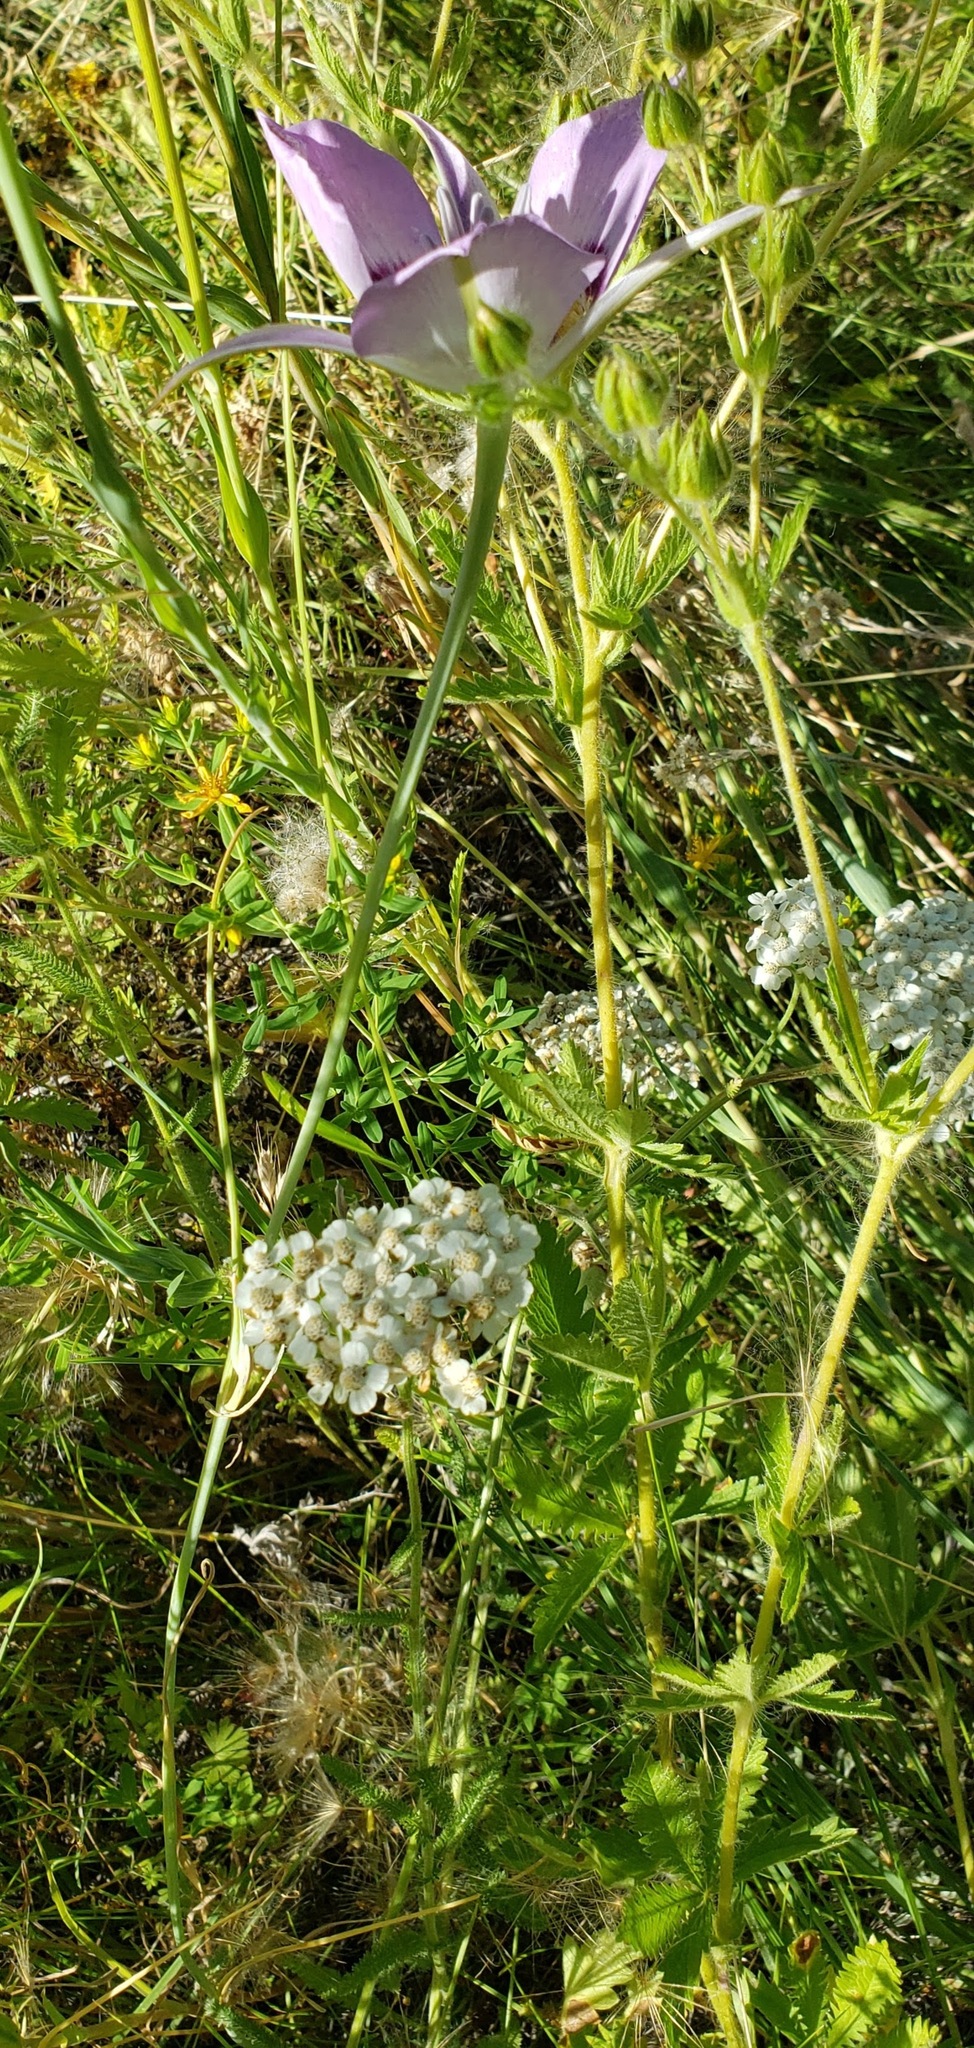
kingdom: Plantae
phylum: Tracheophyta
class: Liliopsida
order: Liliales
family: Liliaceae
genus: Calochortus
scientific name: Calochortus macrocarpus
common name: Green-band mariposa lily
